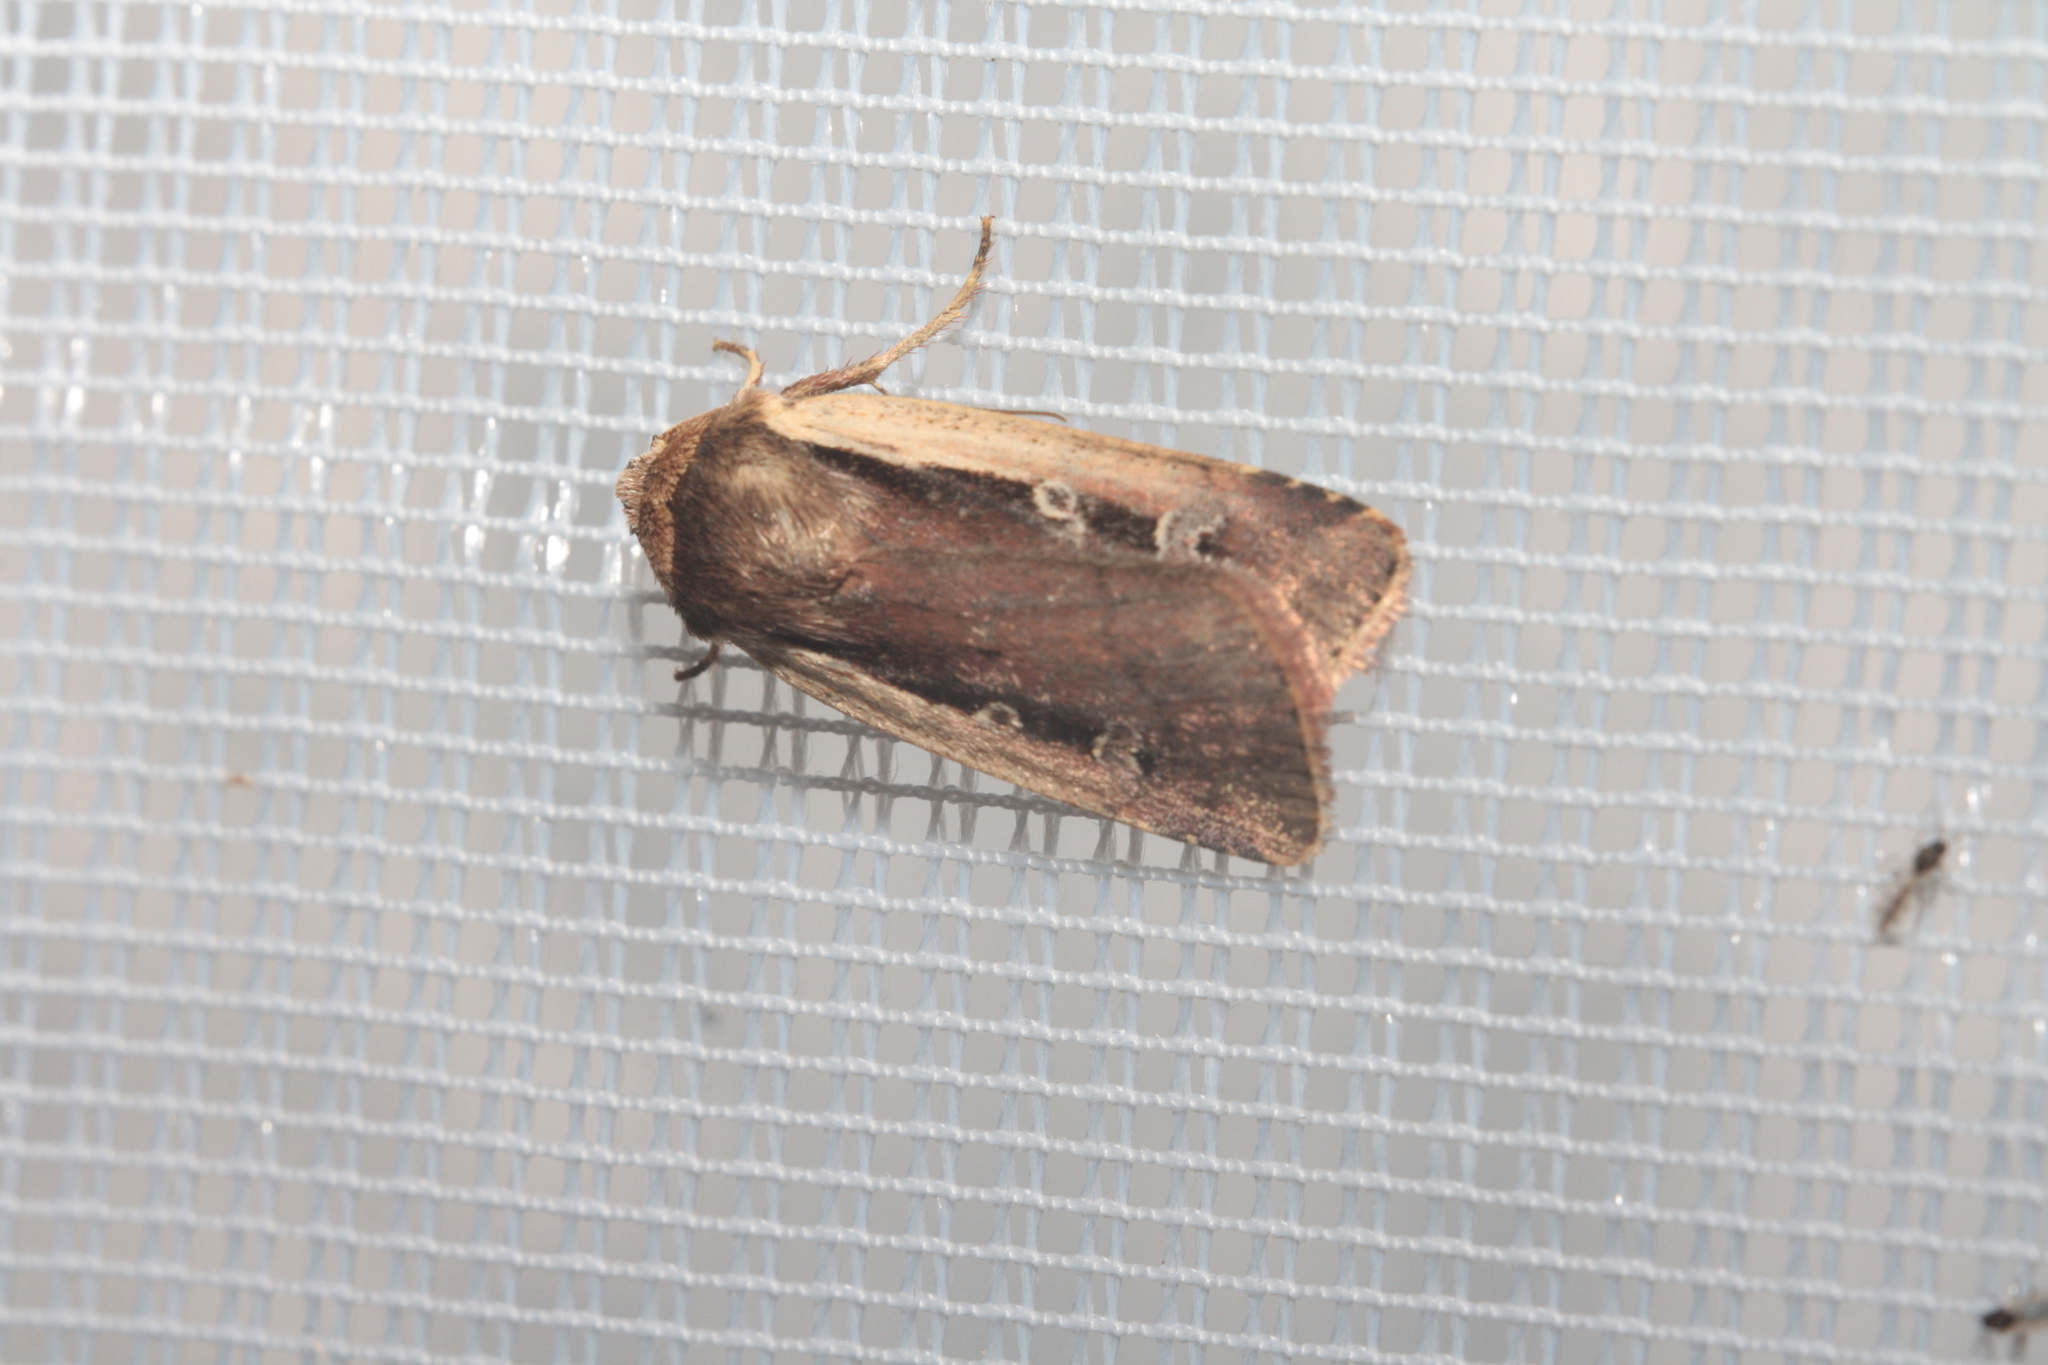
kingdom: Animalia
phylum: Arthropoda
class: Insecta
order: Lepidoptera
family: Noctuidae
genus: Ochropleura
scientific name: Ochropleura plecta
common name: Flame shoulder
